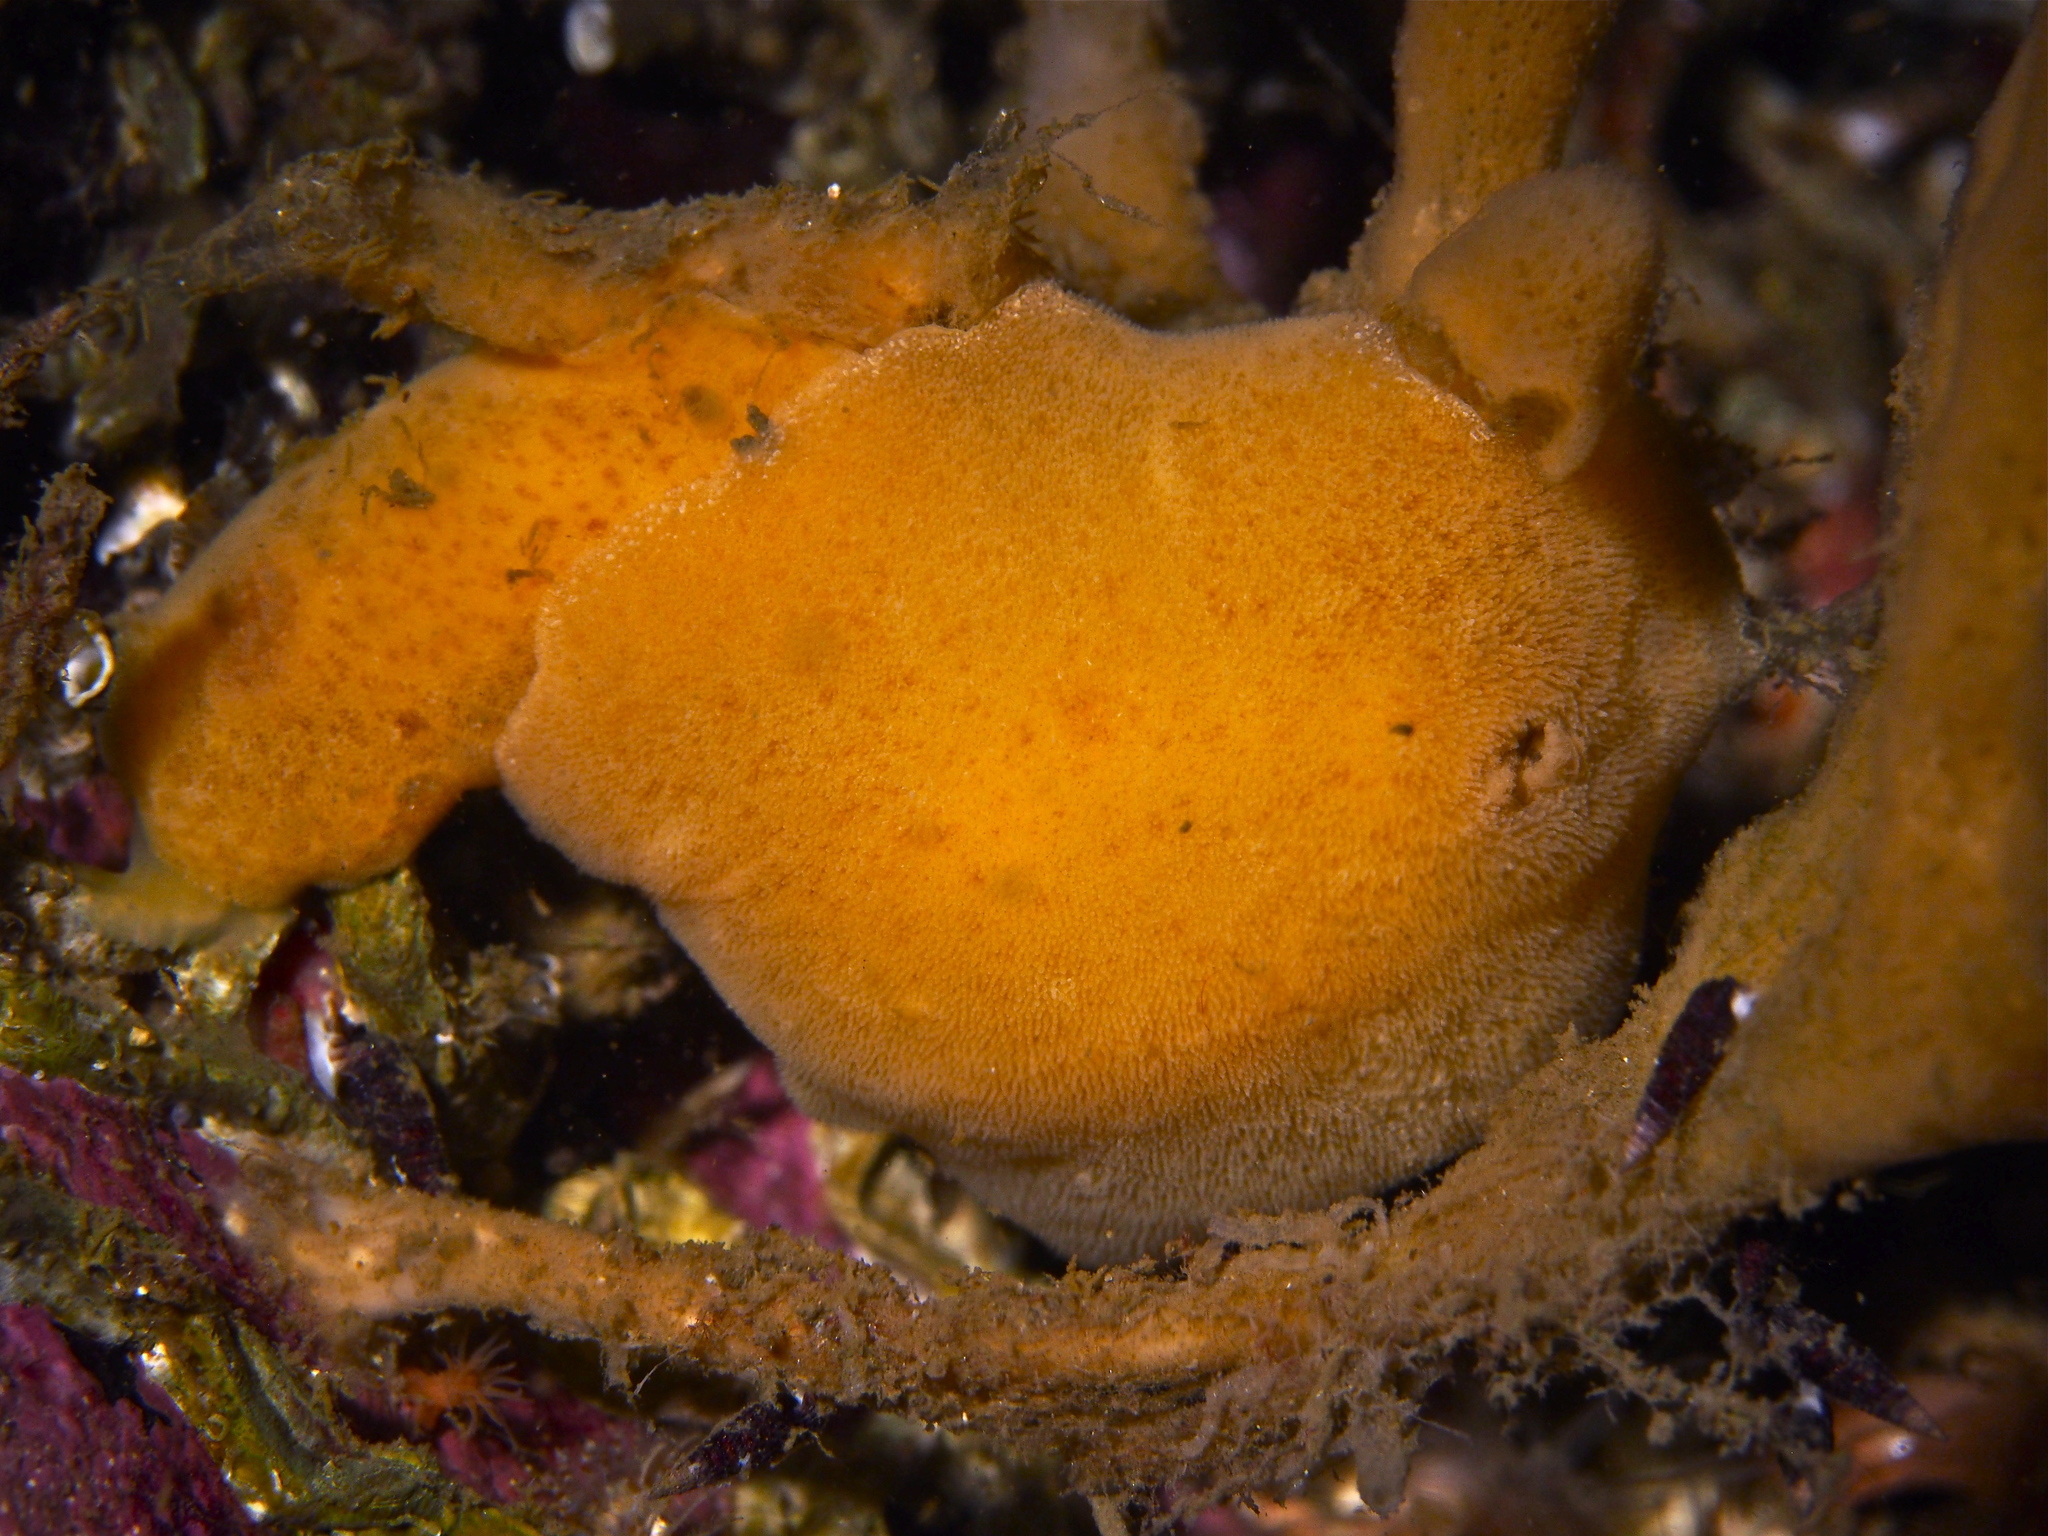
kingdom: Animalia
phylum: Mollusca
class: Gastropoda
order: Nudibranchia
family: Discodorididae
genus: Jorunna
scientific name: Jorunna tomentosa
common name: Grey sea slug
